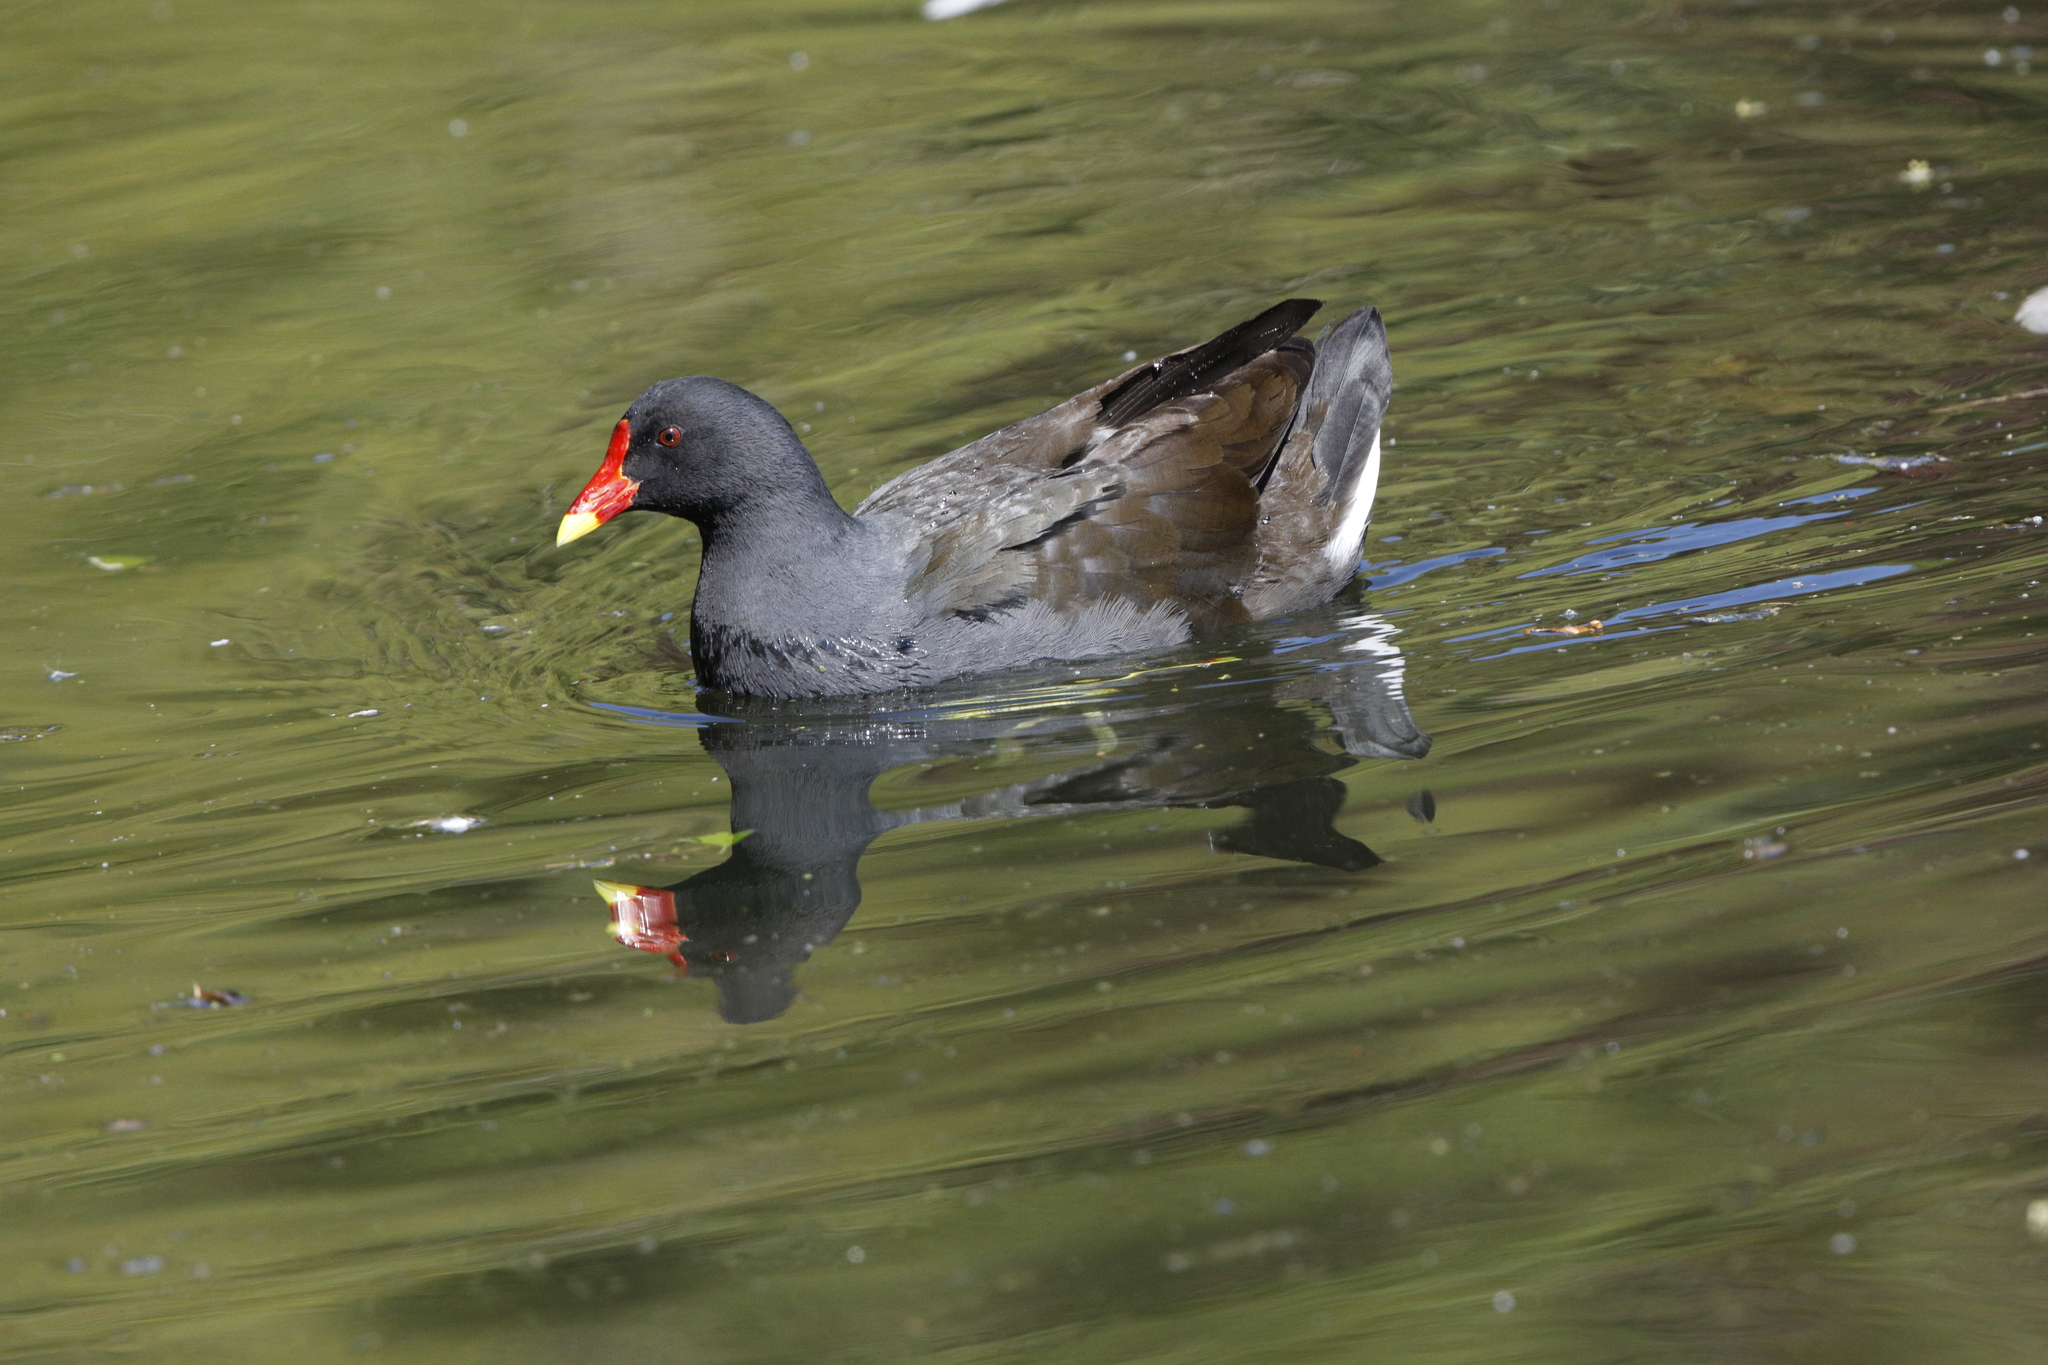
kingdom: Animalia
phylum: Chordata
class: Aves
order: Gruiformes
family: Rallidae
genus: Gallinula
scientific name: Gallinula chloropus
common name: Common moorhen
